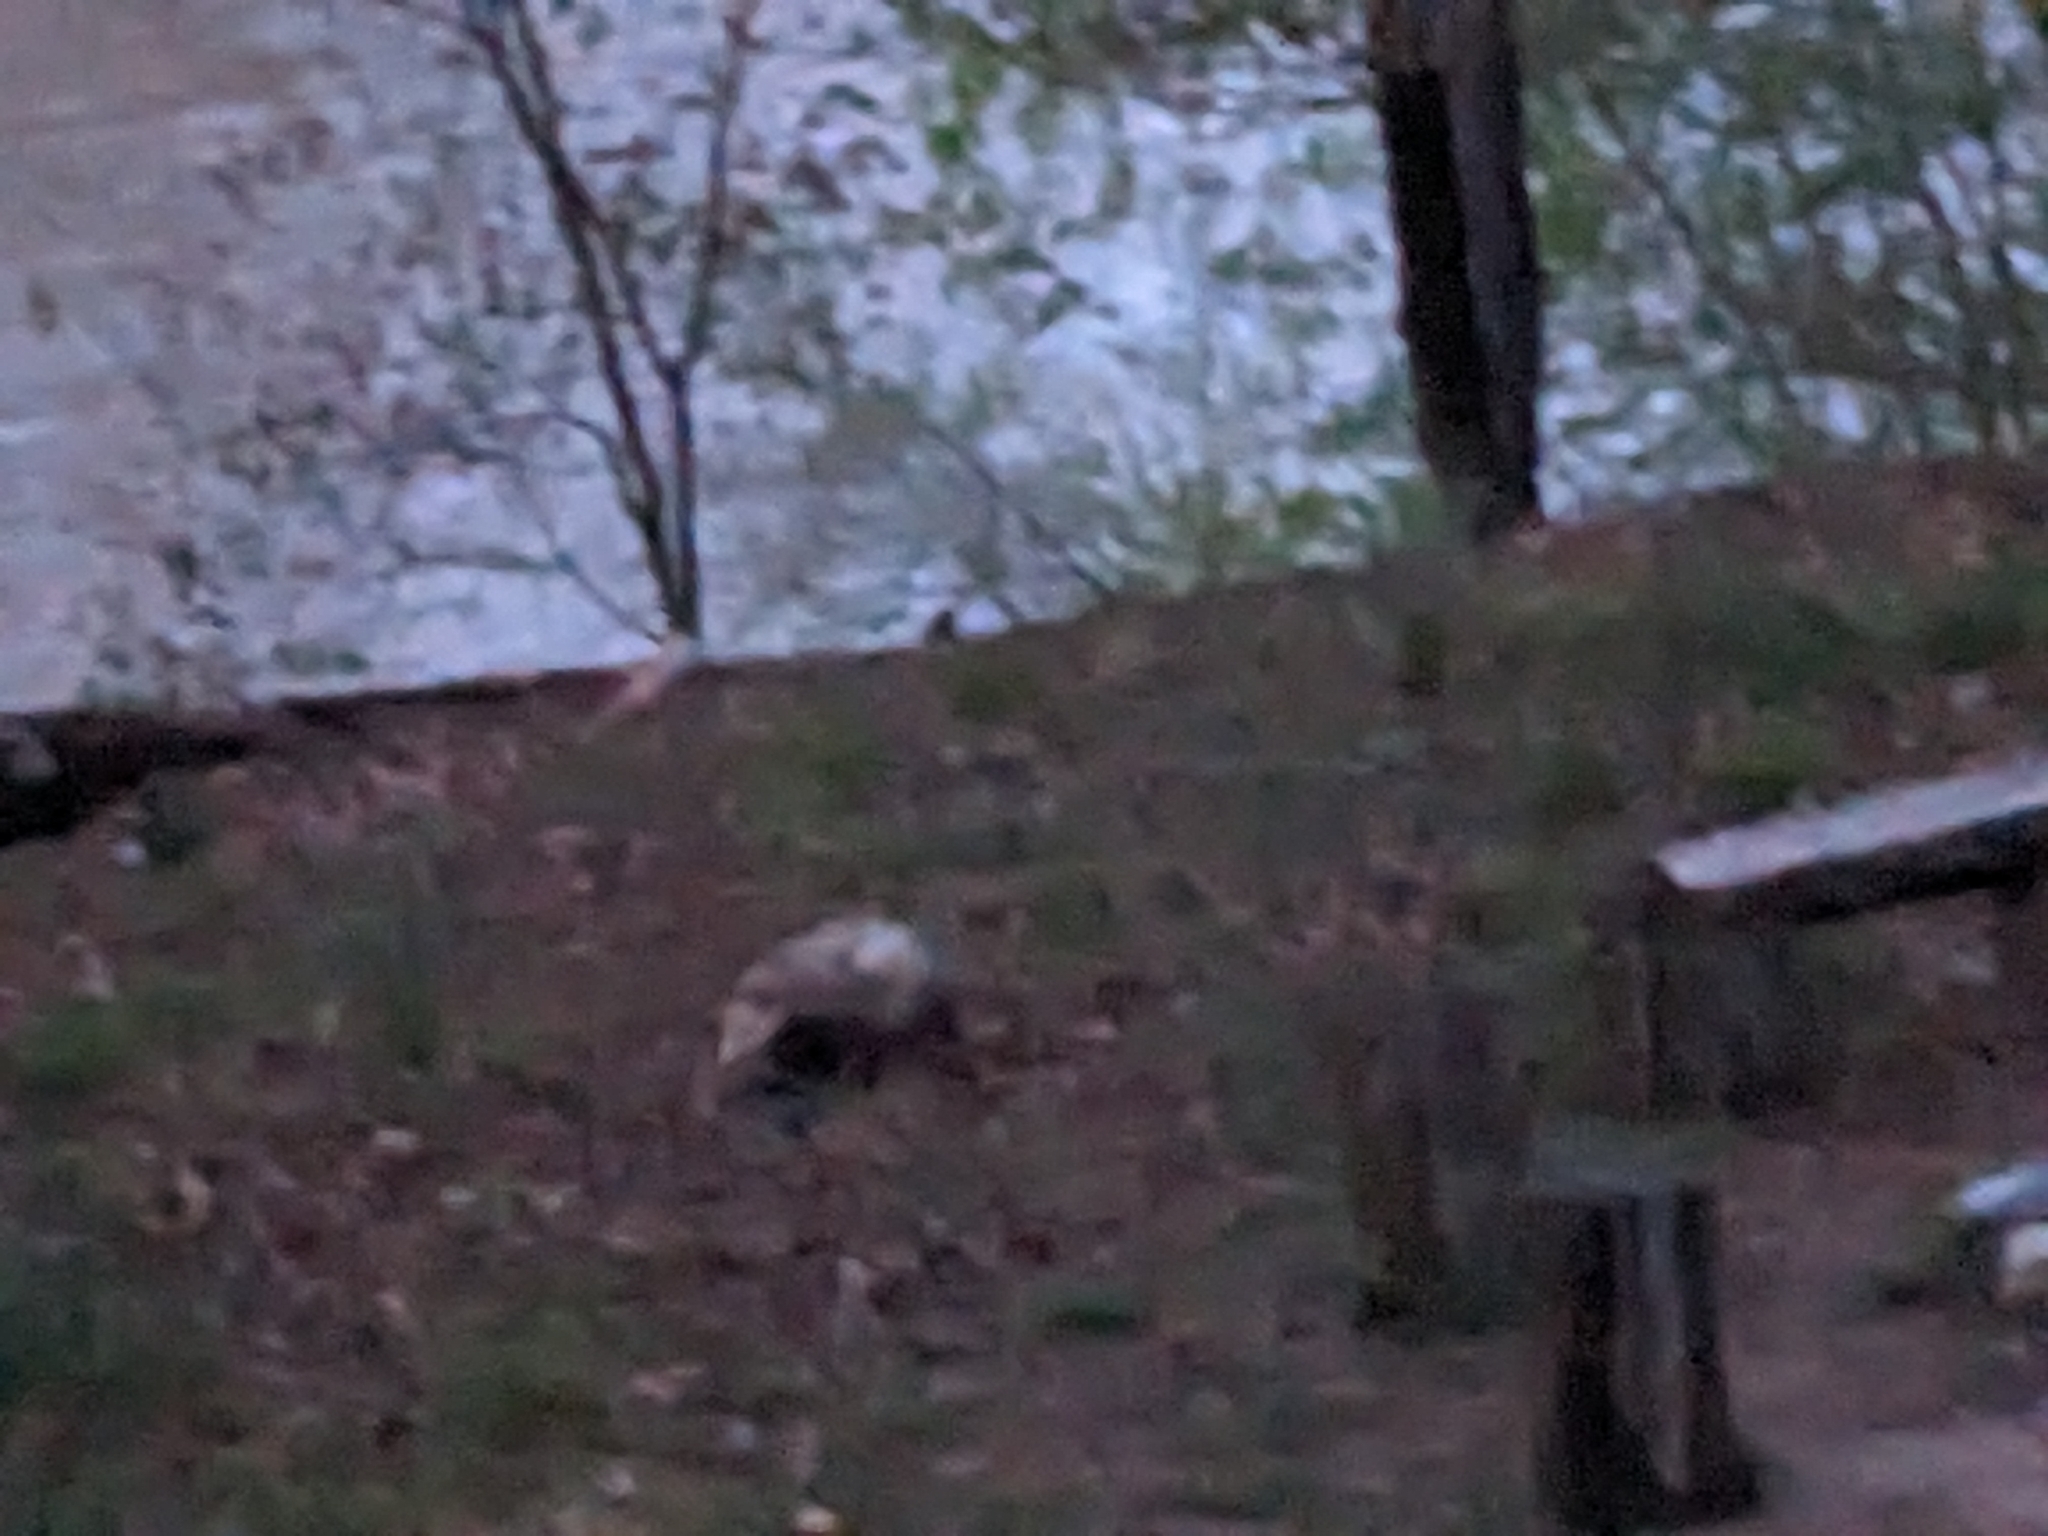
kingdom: Animalia
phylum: Chordata
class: Mammalia
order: Didelphimorphia
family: Didelphidae
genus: Didelphis
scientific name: Didelphis virginiana
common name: Virginia opossum
